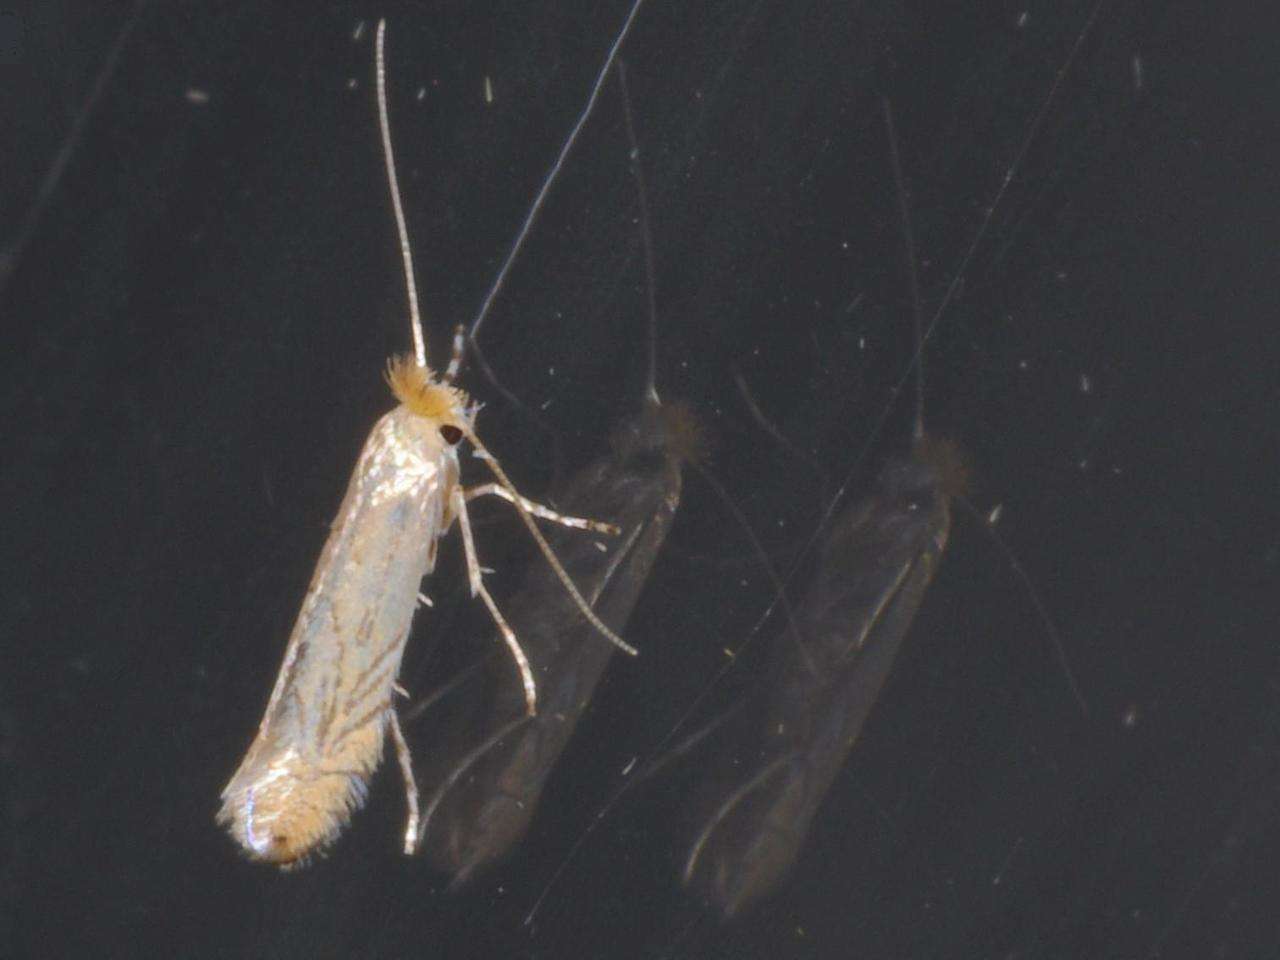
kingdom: Animalia
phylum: Arthropoda
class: Insecta
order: Lepidoptera
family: Gracillariidae
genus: Phyllonorycter
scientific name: Phyllonorycter messaniella
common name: Garden midget
